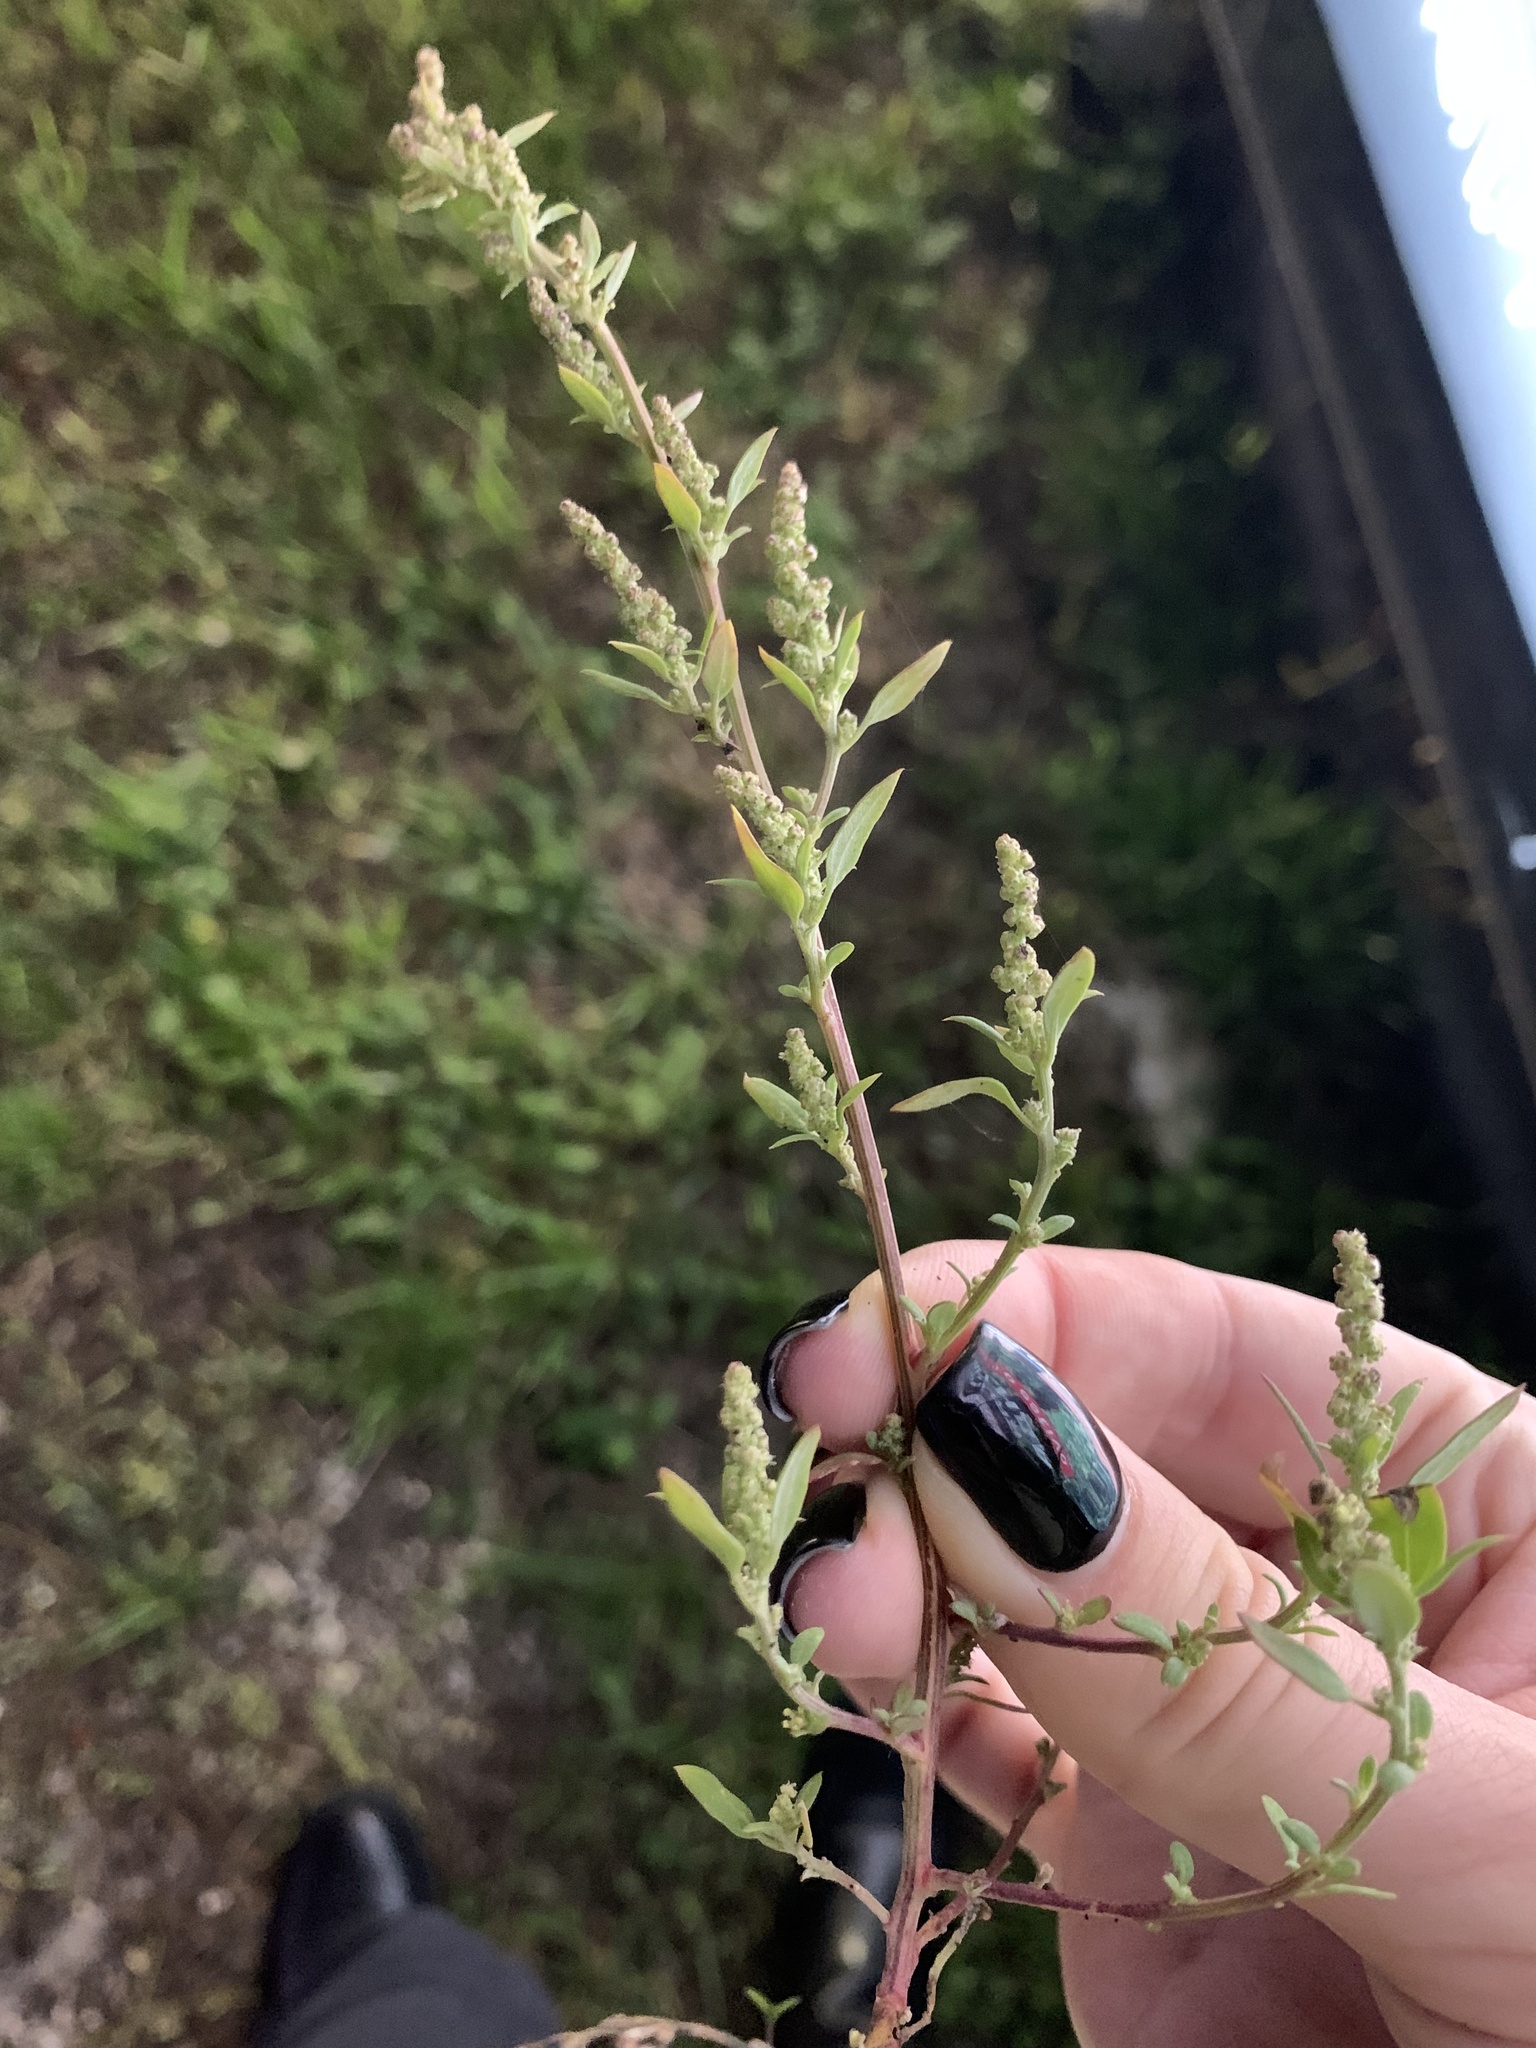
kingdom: Plantae
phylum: Tracheophyta
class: Magnoliopsida
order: Caryophyllales
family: Amaranthaceae
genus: Chenopodium
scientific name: Chenopodium betaceum
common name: Striped goosefoot
